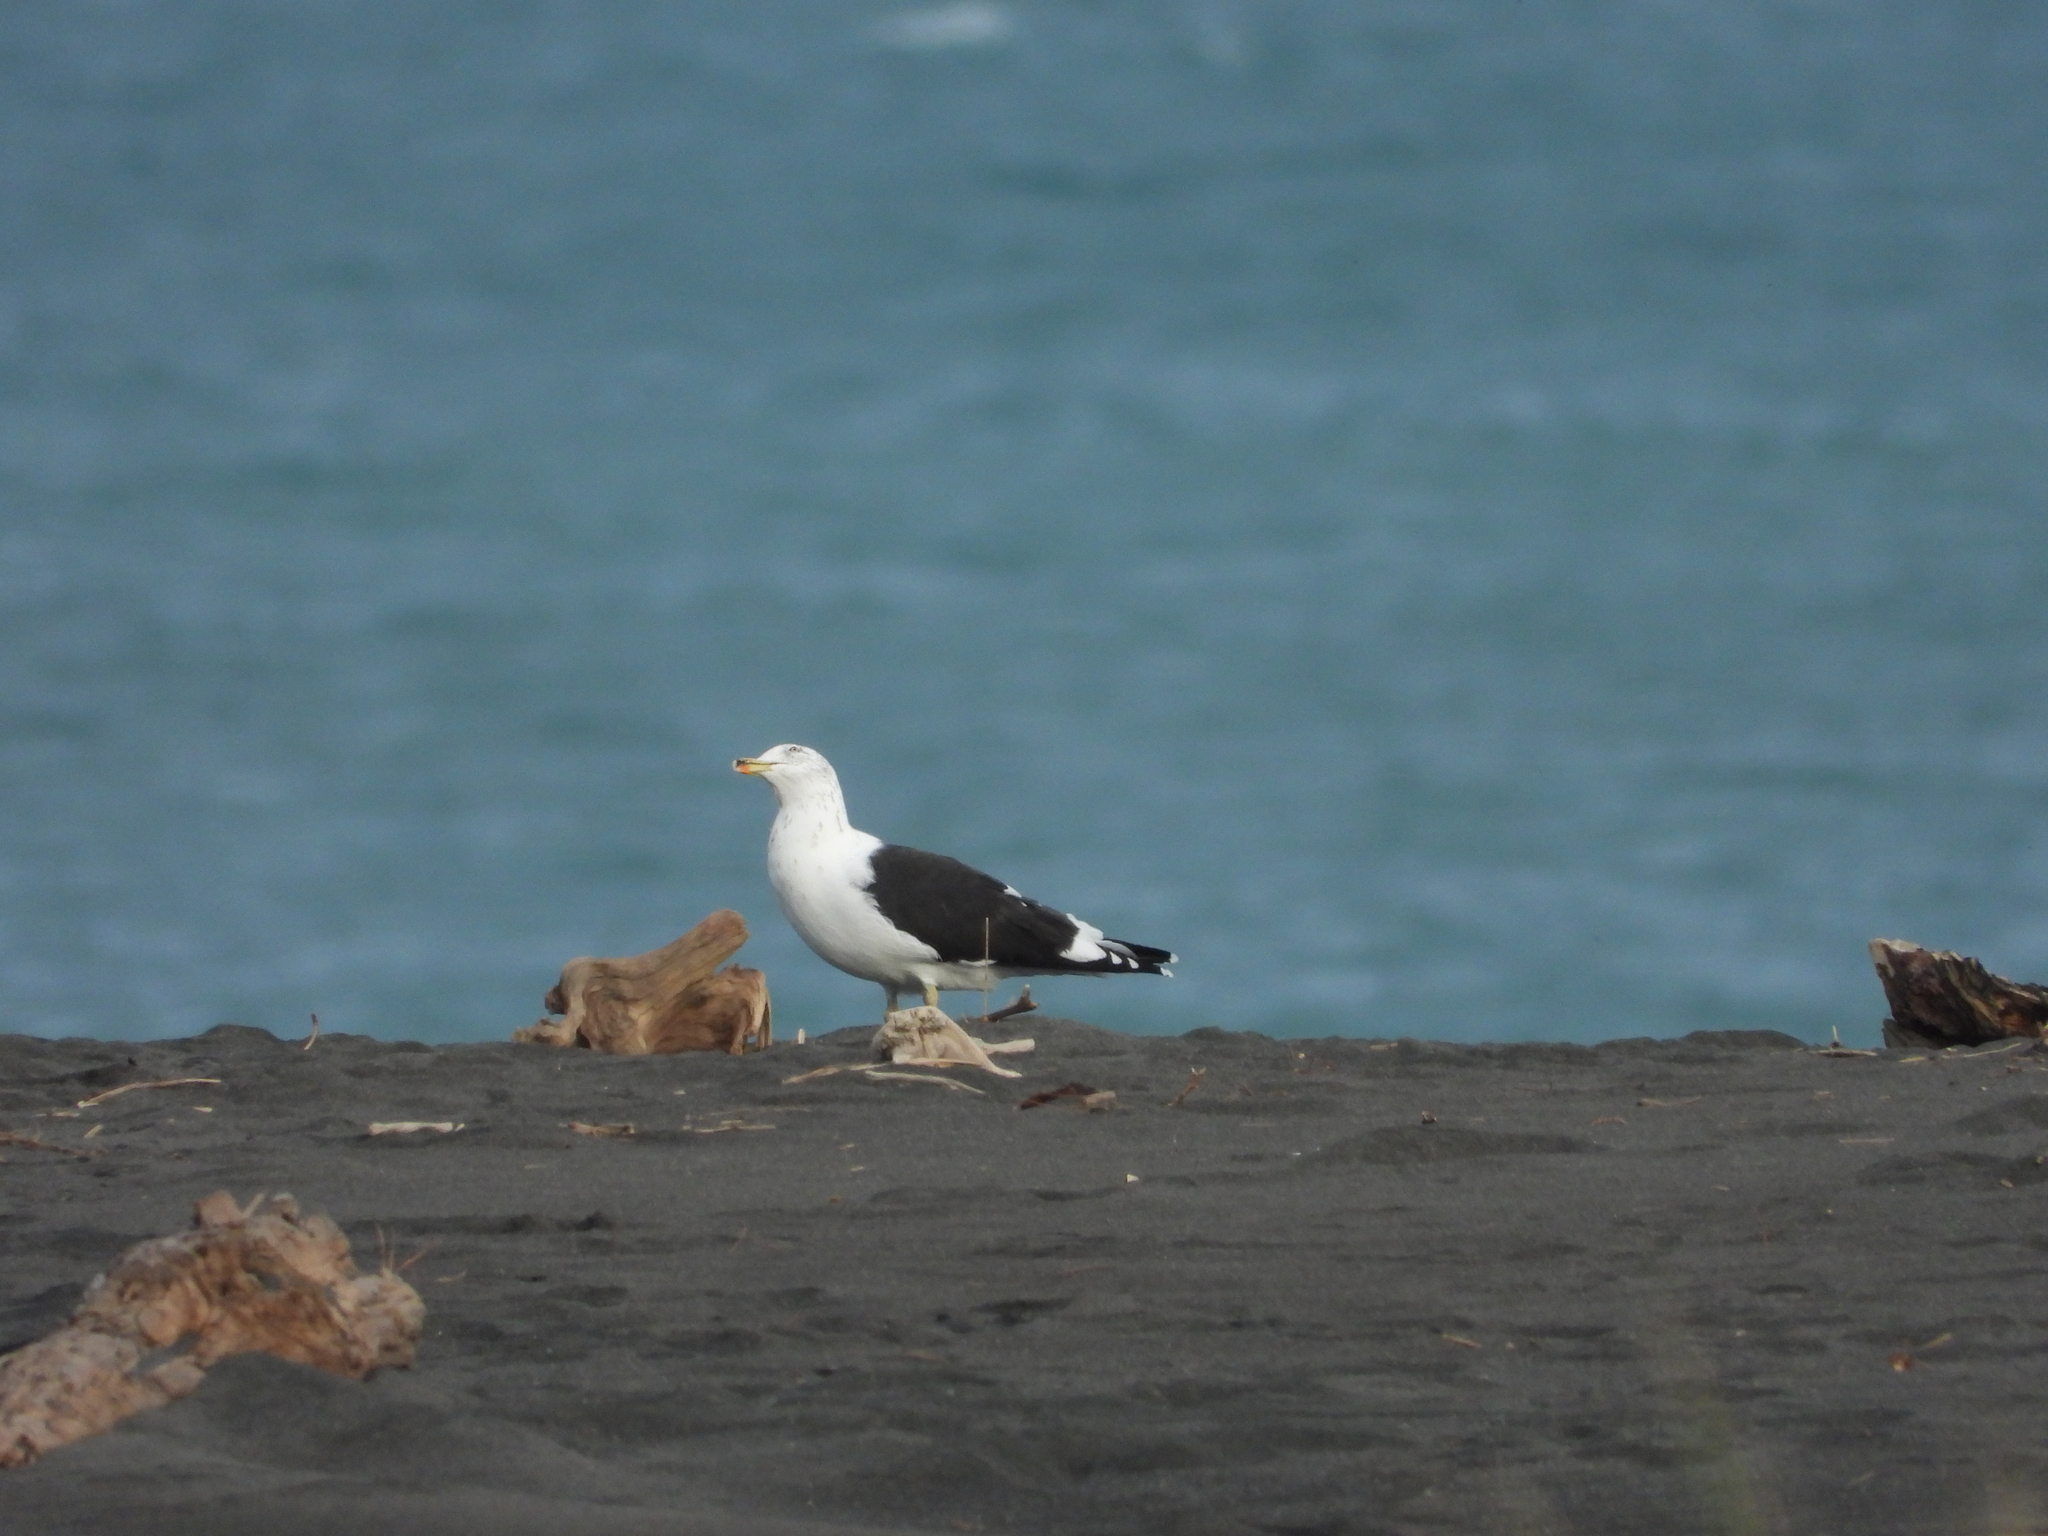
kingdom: Animalia
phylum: Chordata
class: Aves
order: Charadriiformes
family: Laridae
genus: Larus
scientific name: Larus dominicanus
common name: Kelp gull
